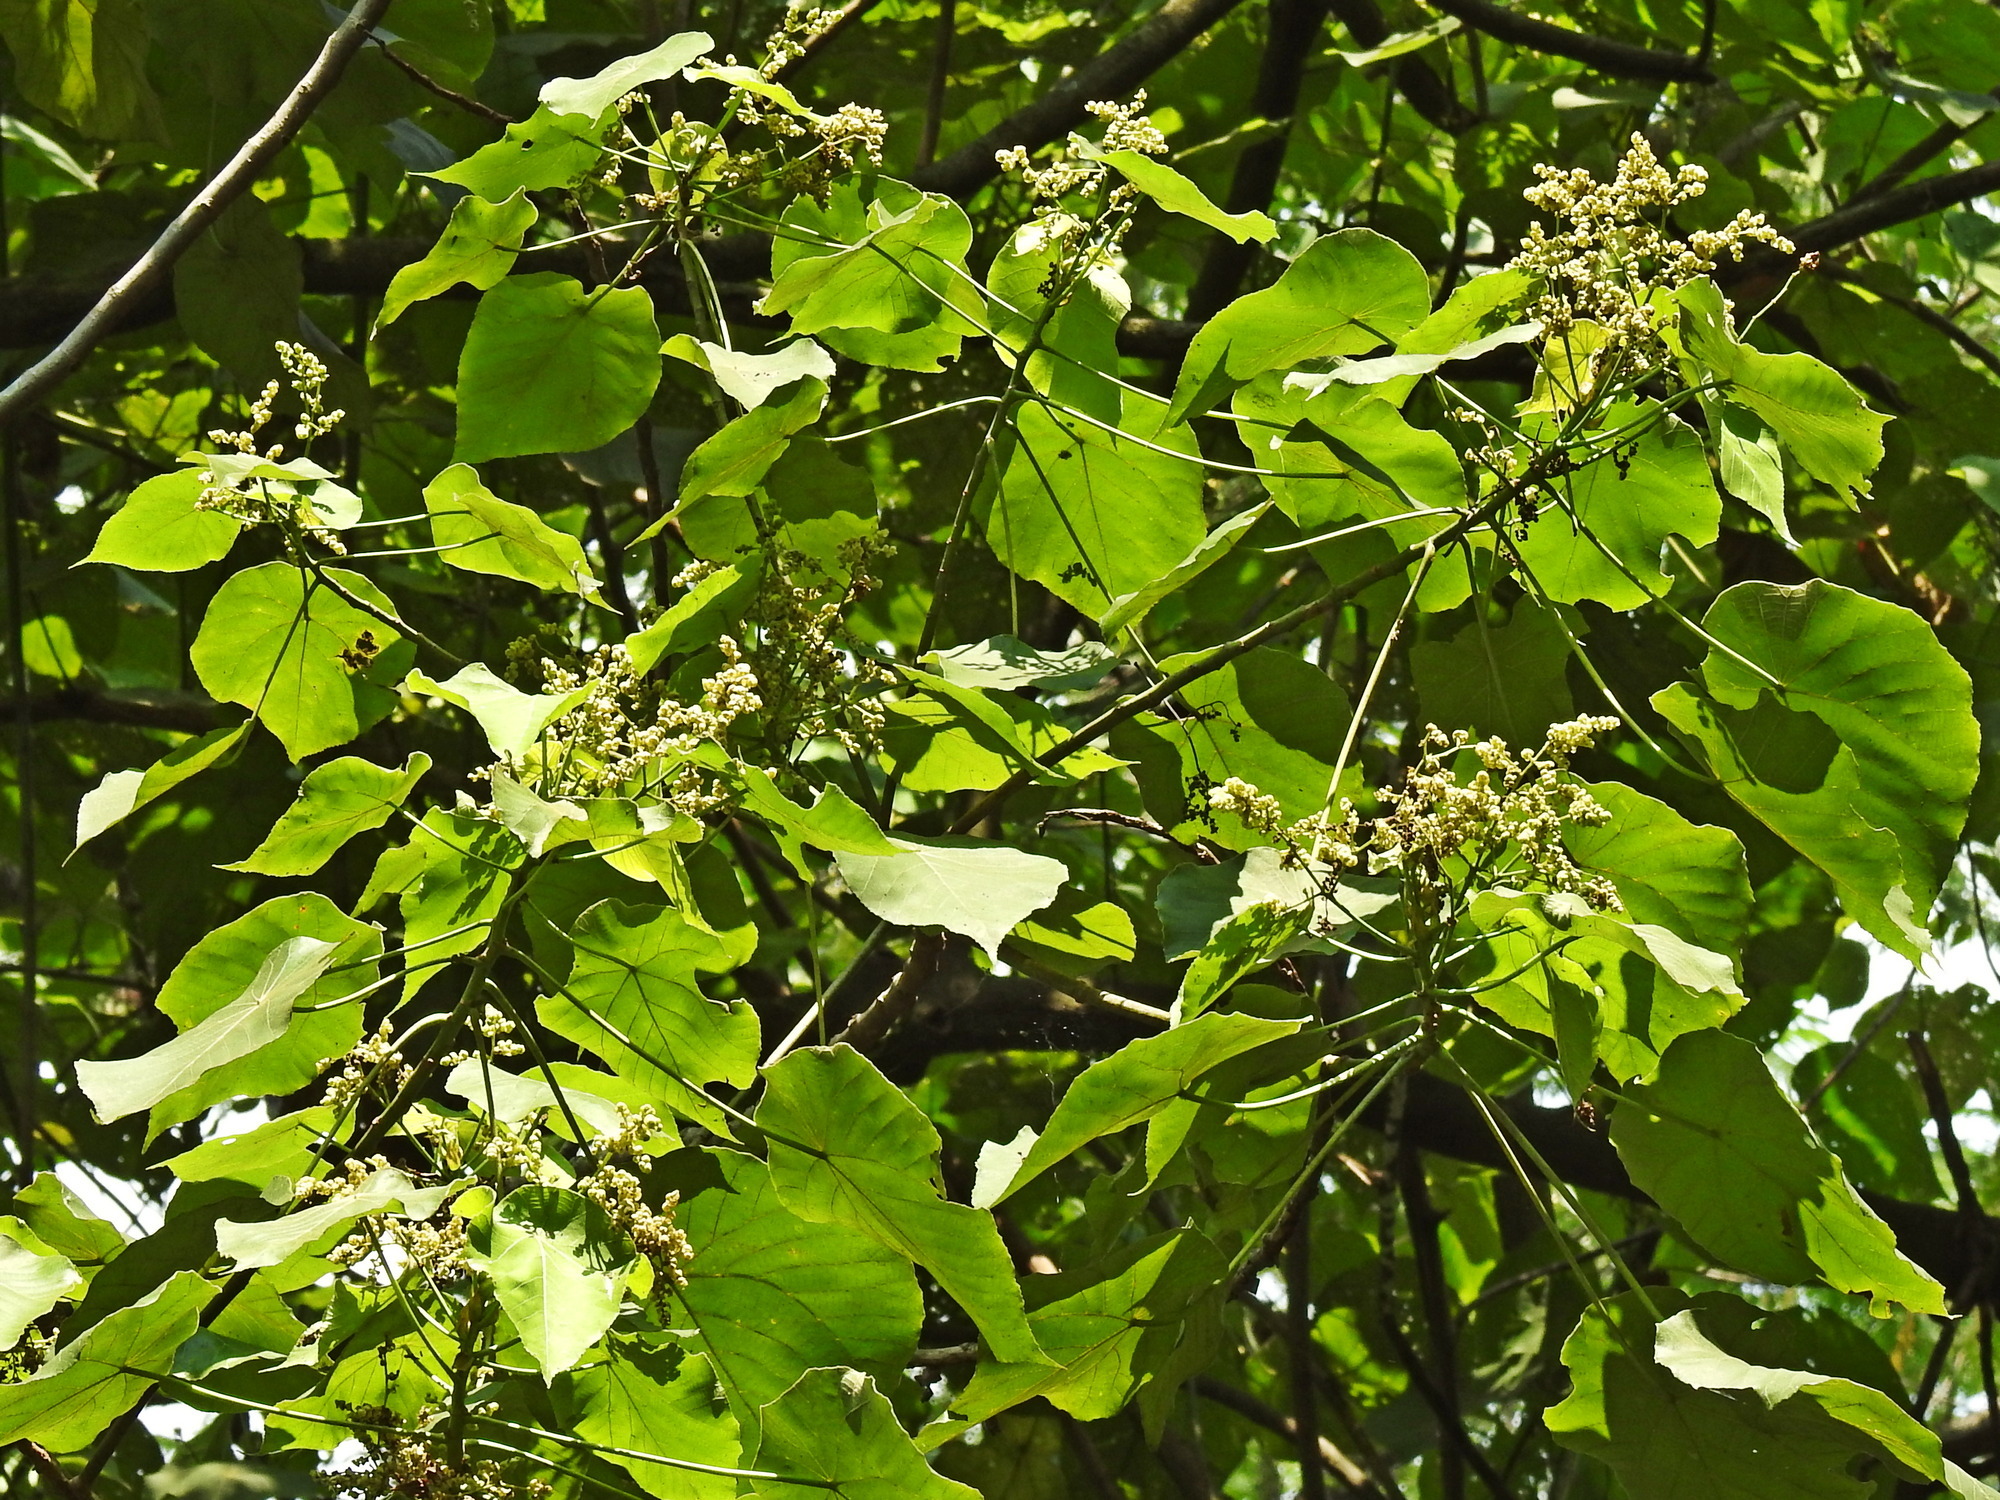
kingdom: Plantae
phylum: Tracheophyta
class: Magnoliopsida
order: Malpighiales
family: Euphorbiaceae
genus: Macaranga
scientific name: Macaranga tanarius
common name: Parasol leaf tree
